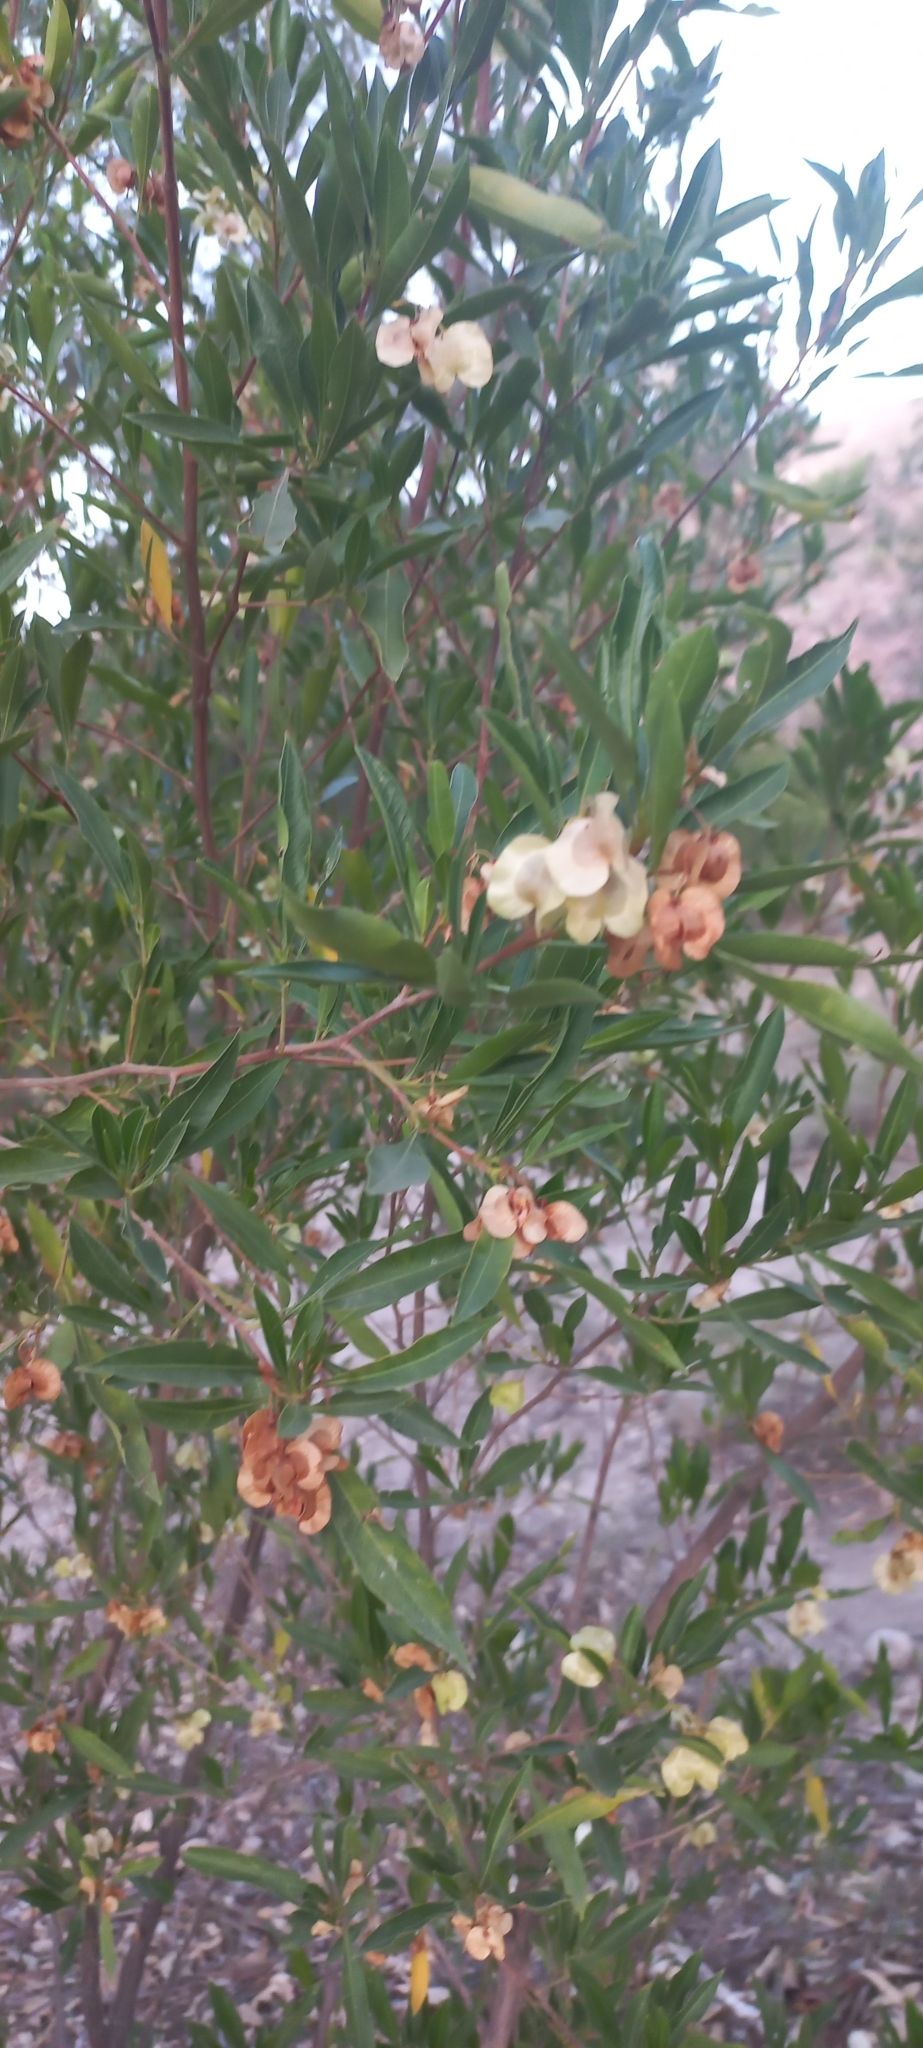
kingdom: Plantae
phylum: Tracheophyta
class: Magnoliopsida
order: Sapindales
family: Sapindaceae
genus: Dodonaea
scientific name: Dodonaea viscosa
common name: Hopbush
